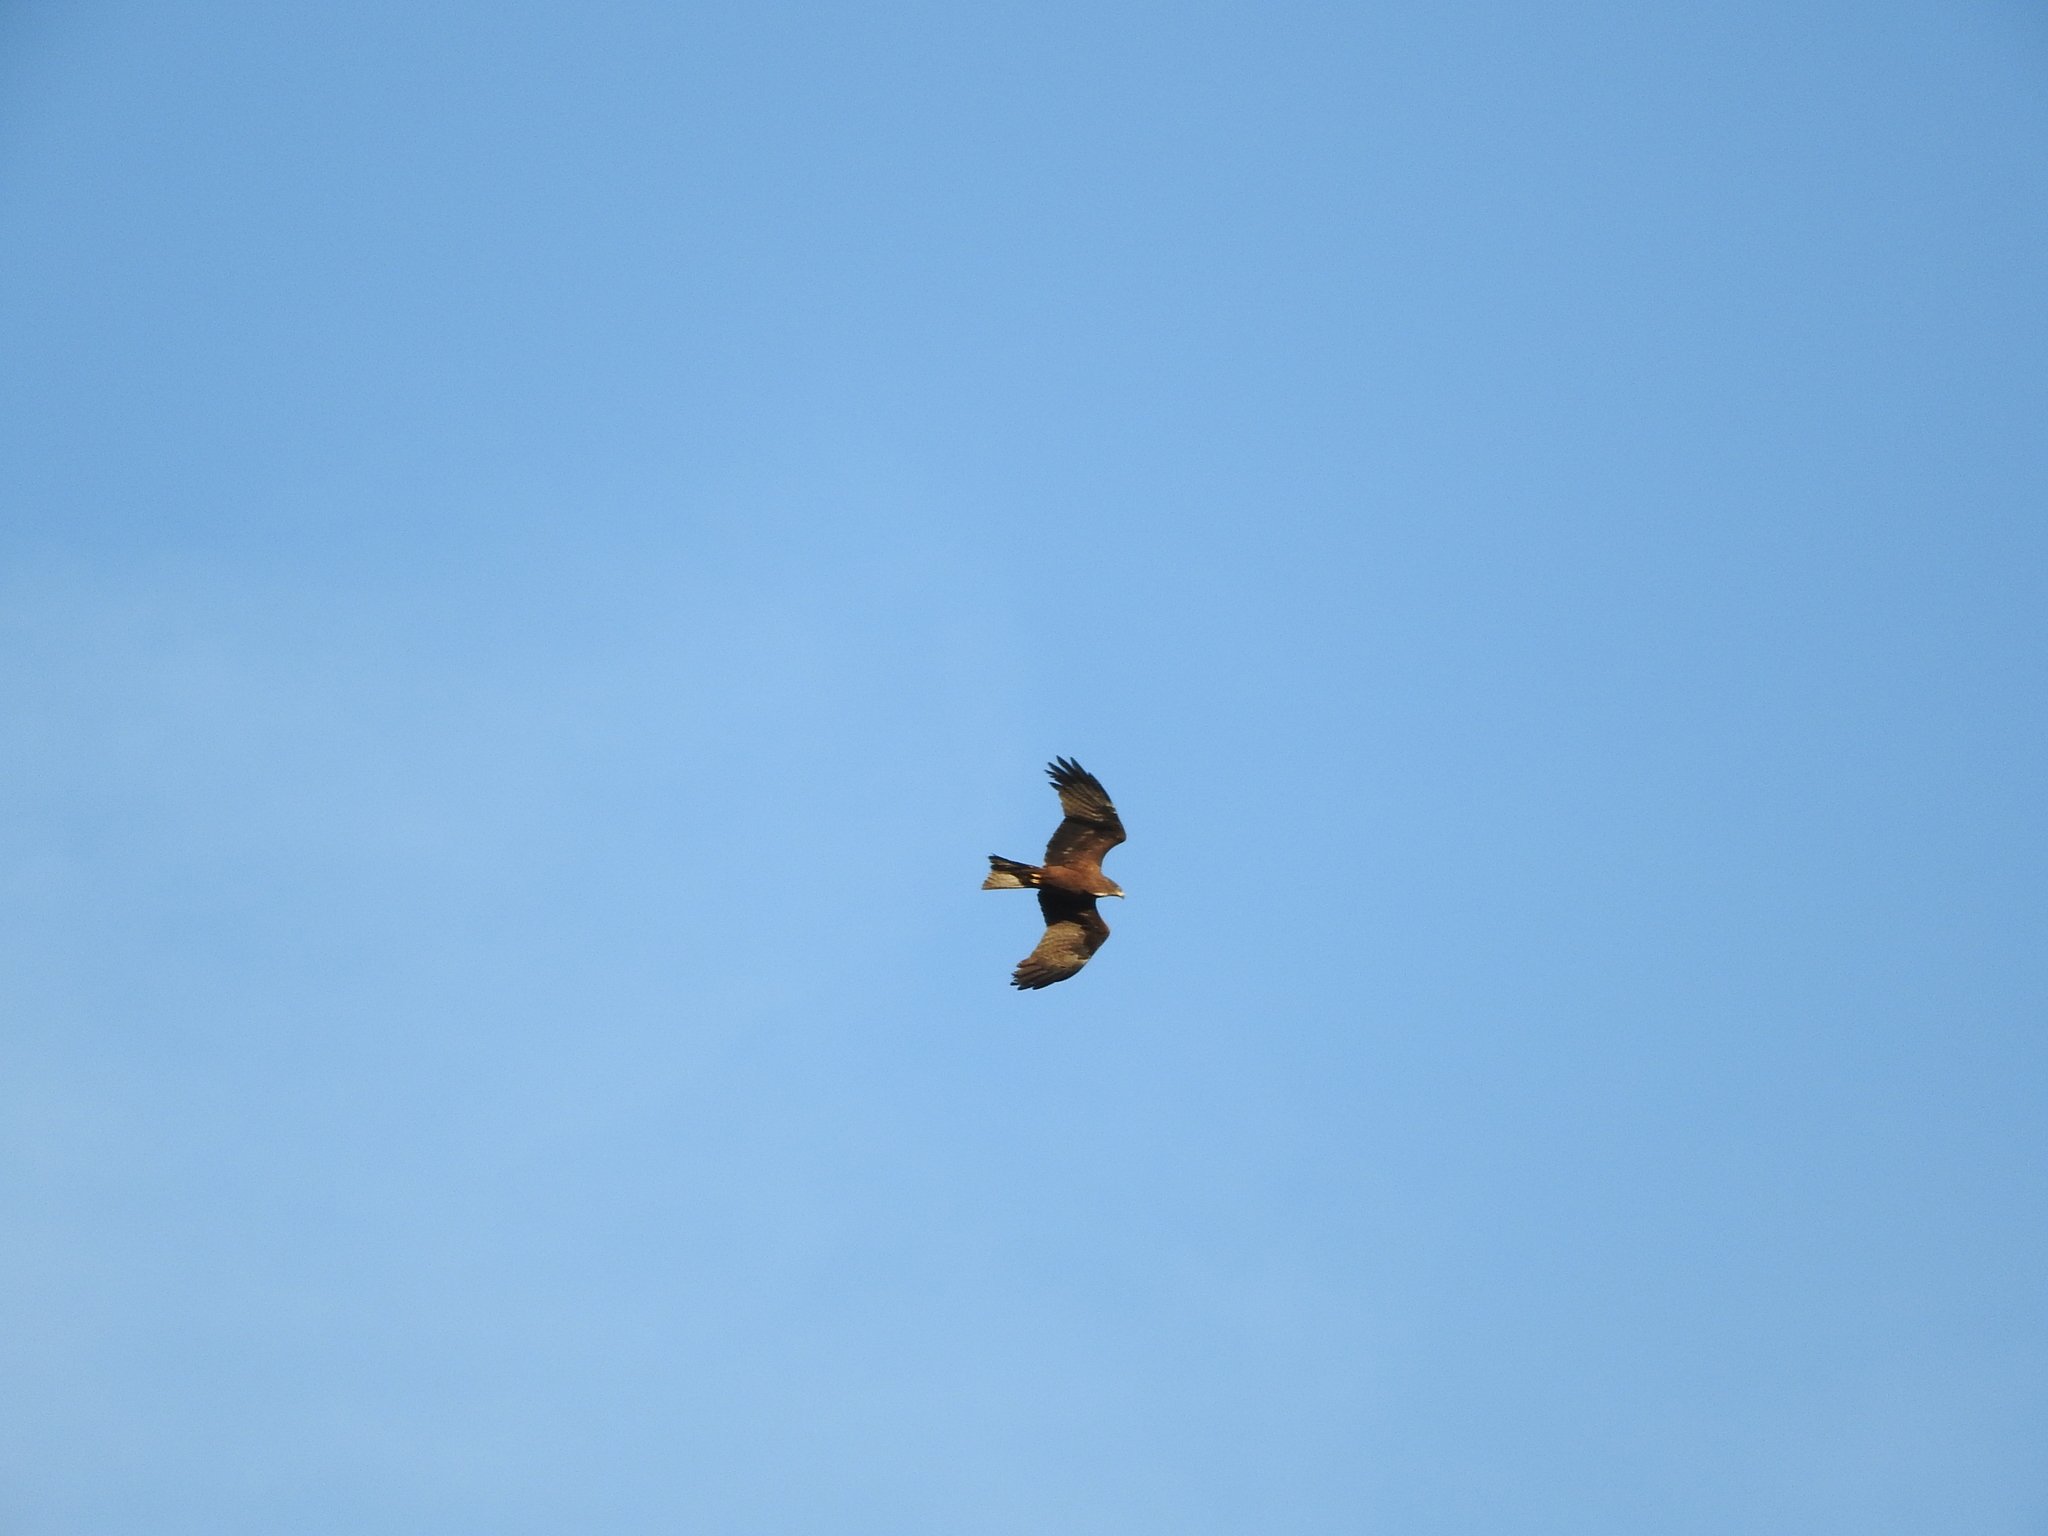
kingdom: Animalia
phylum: Chordata
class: Aves
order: Accipitriformes
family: Accipitridae
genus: Milvus
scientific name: Milvus migrans
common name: Black kite
